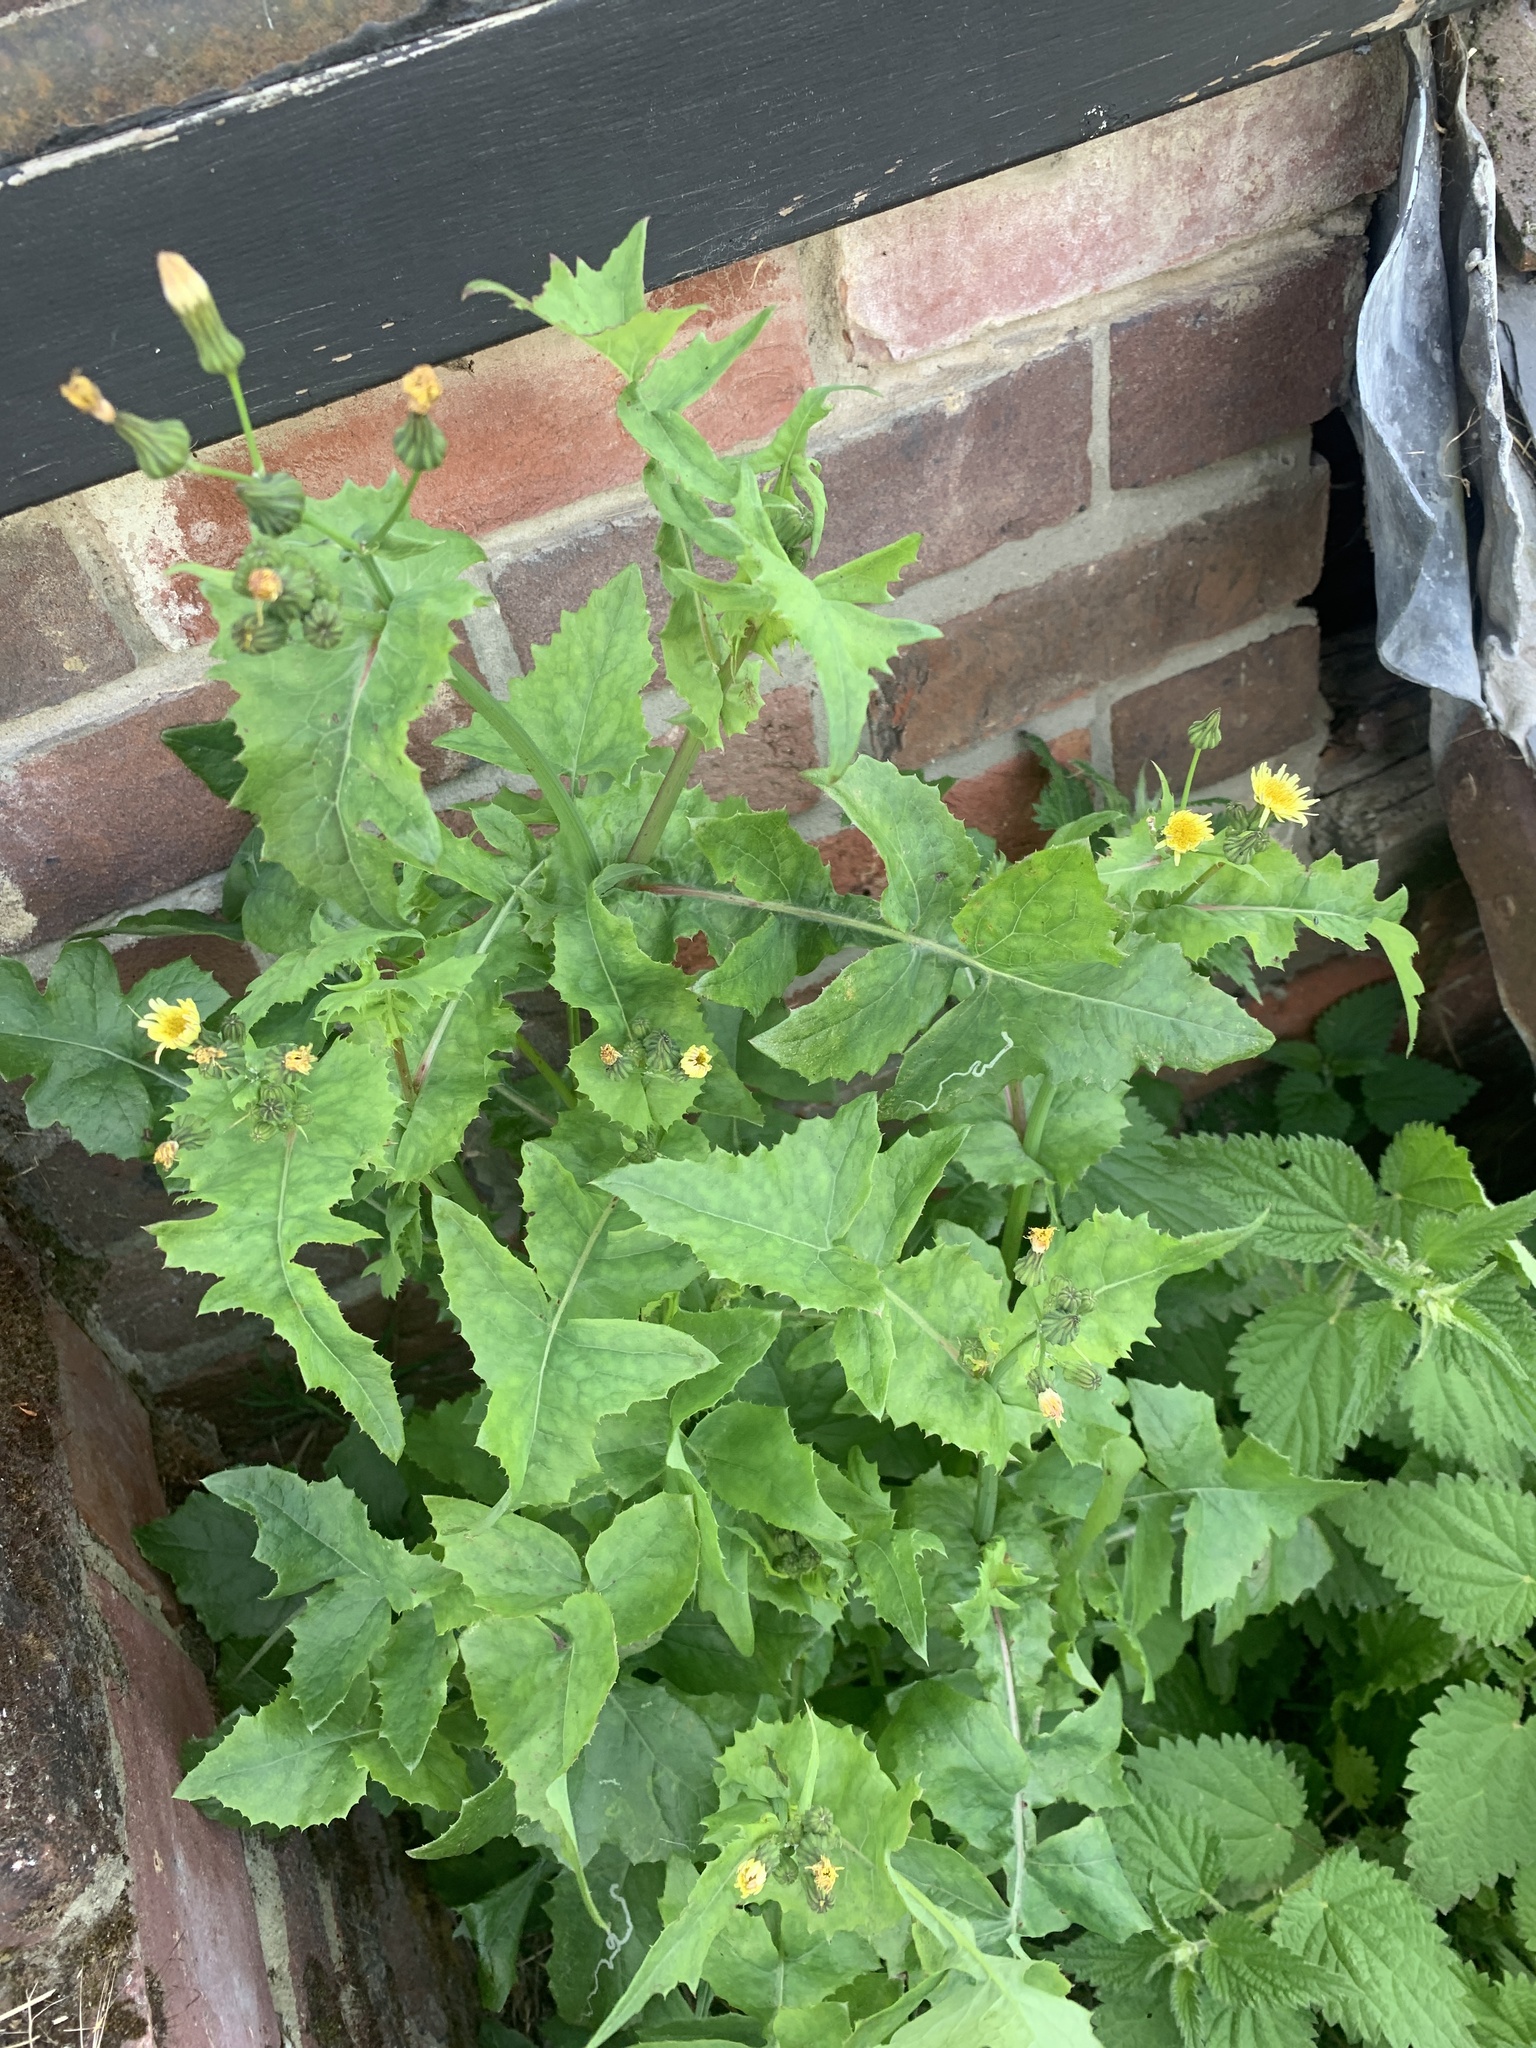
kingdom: Plantae
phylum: Tracheophyta
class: Magnoliopsida
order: Asterales
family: Asteraceae
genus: Sonchus
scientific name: Sonchus oleraceus
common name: Common sowthistle
